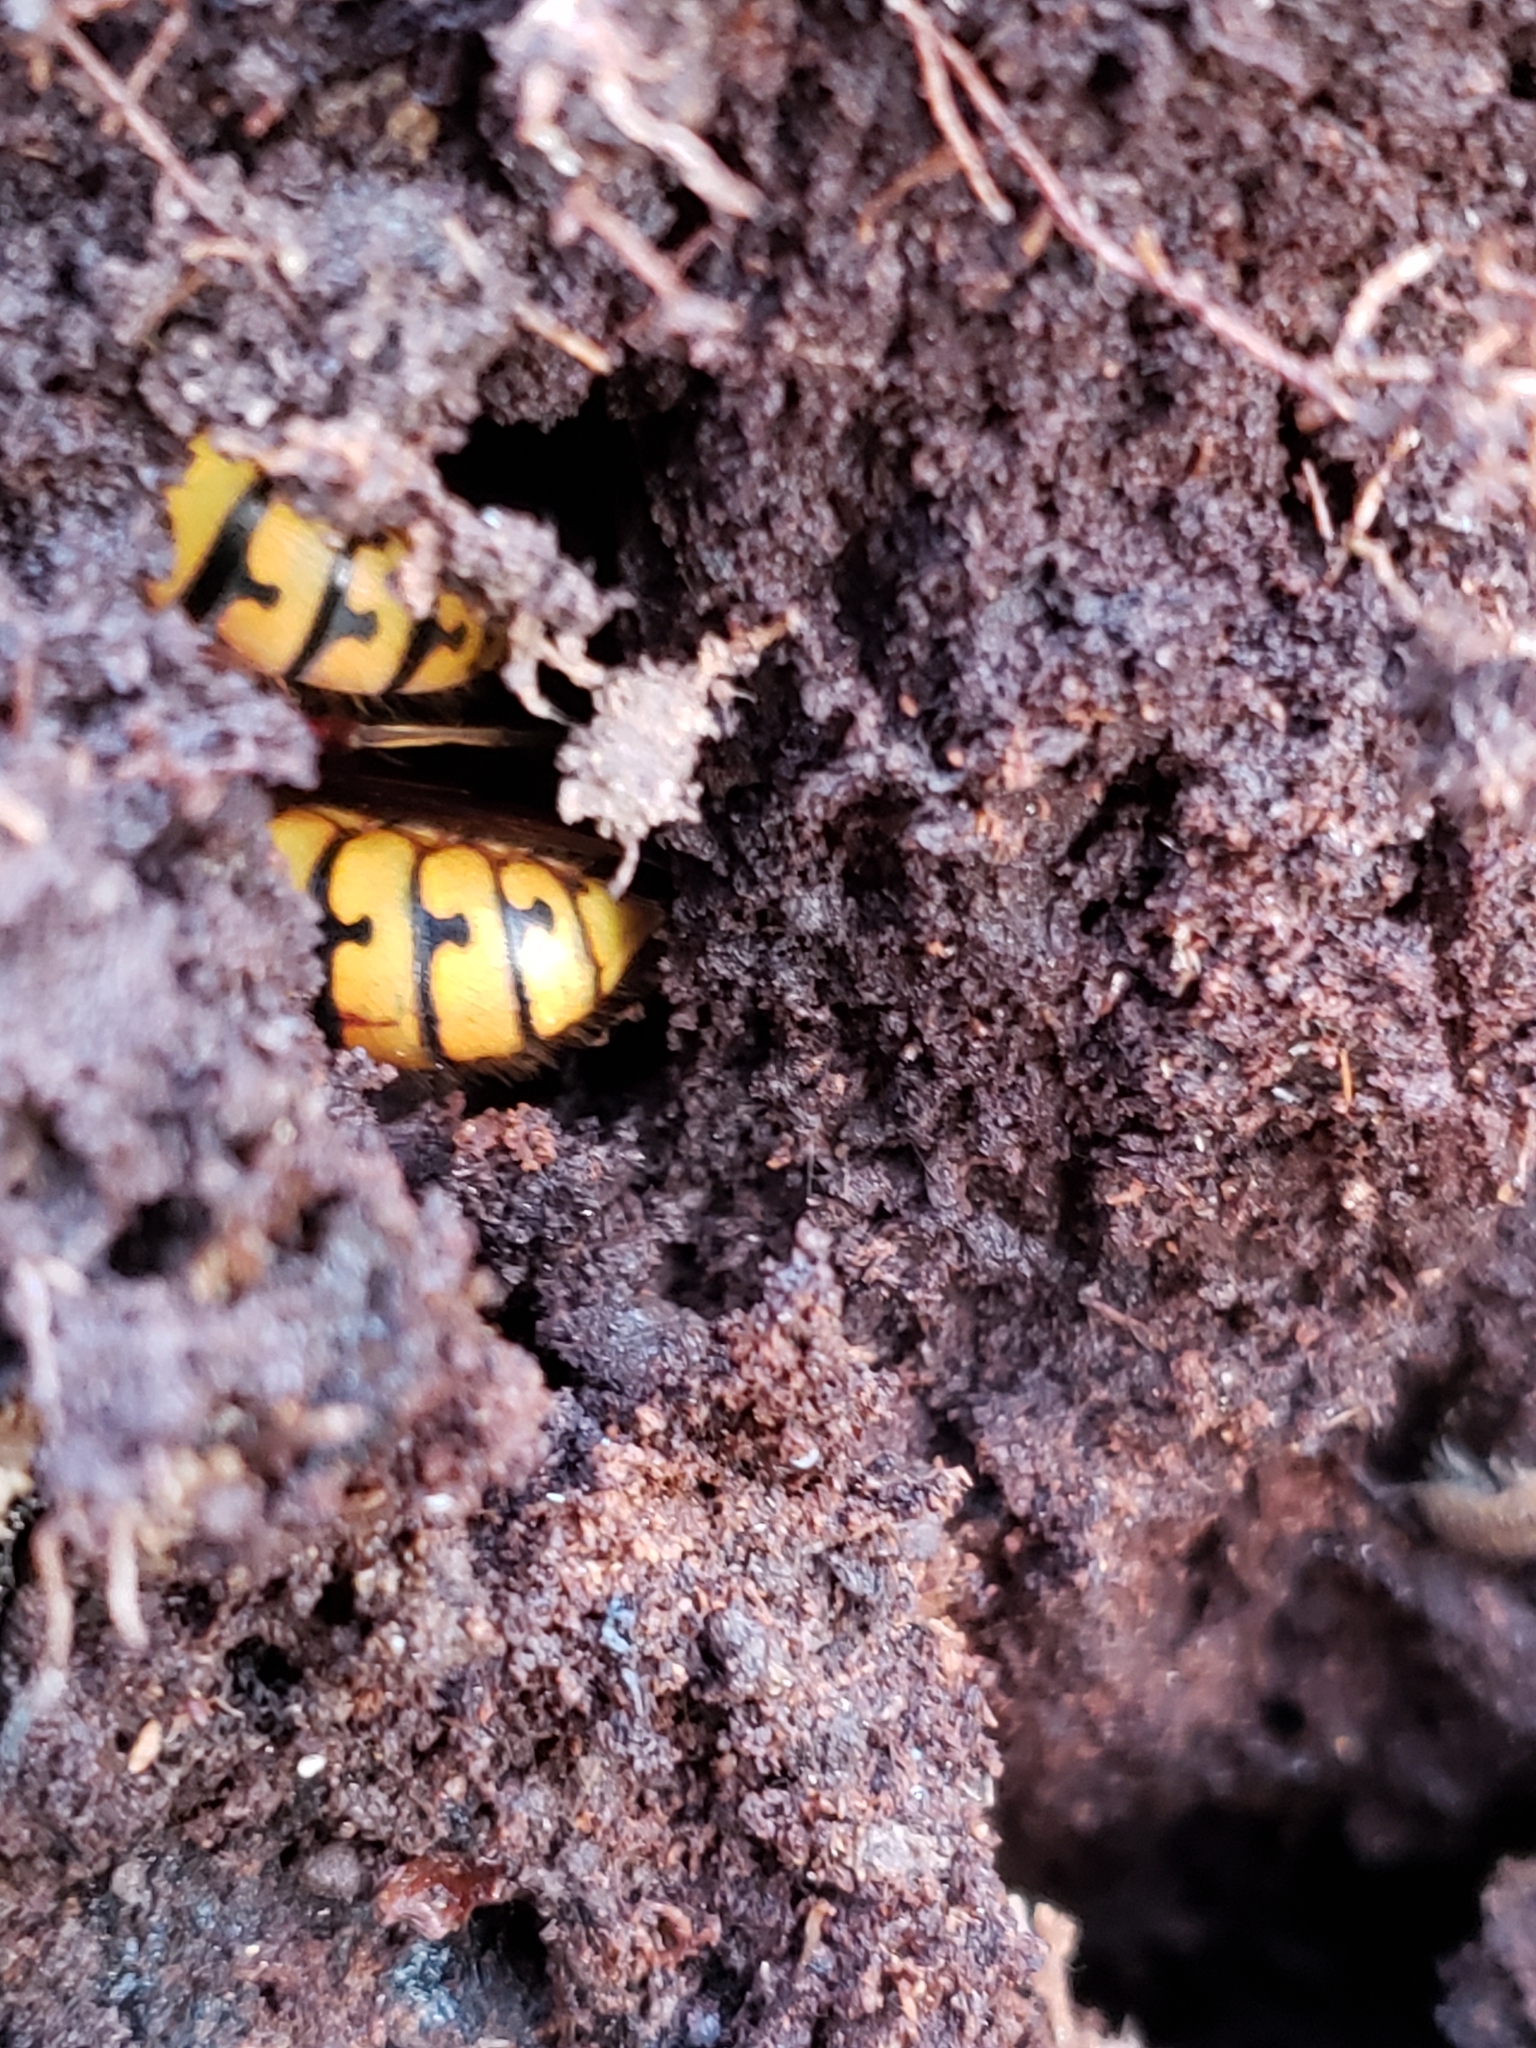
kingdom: Animalia
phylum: Arthropoda
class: Insecta
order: Hymenoptera
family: Vespidae
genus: Vespa
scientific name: Vespa crabro
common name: Hornet
